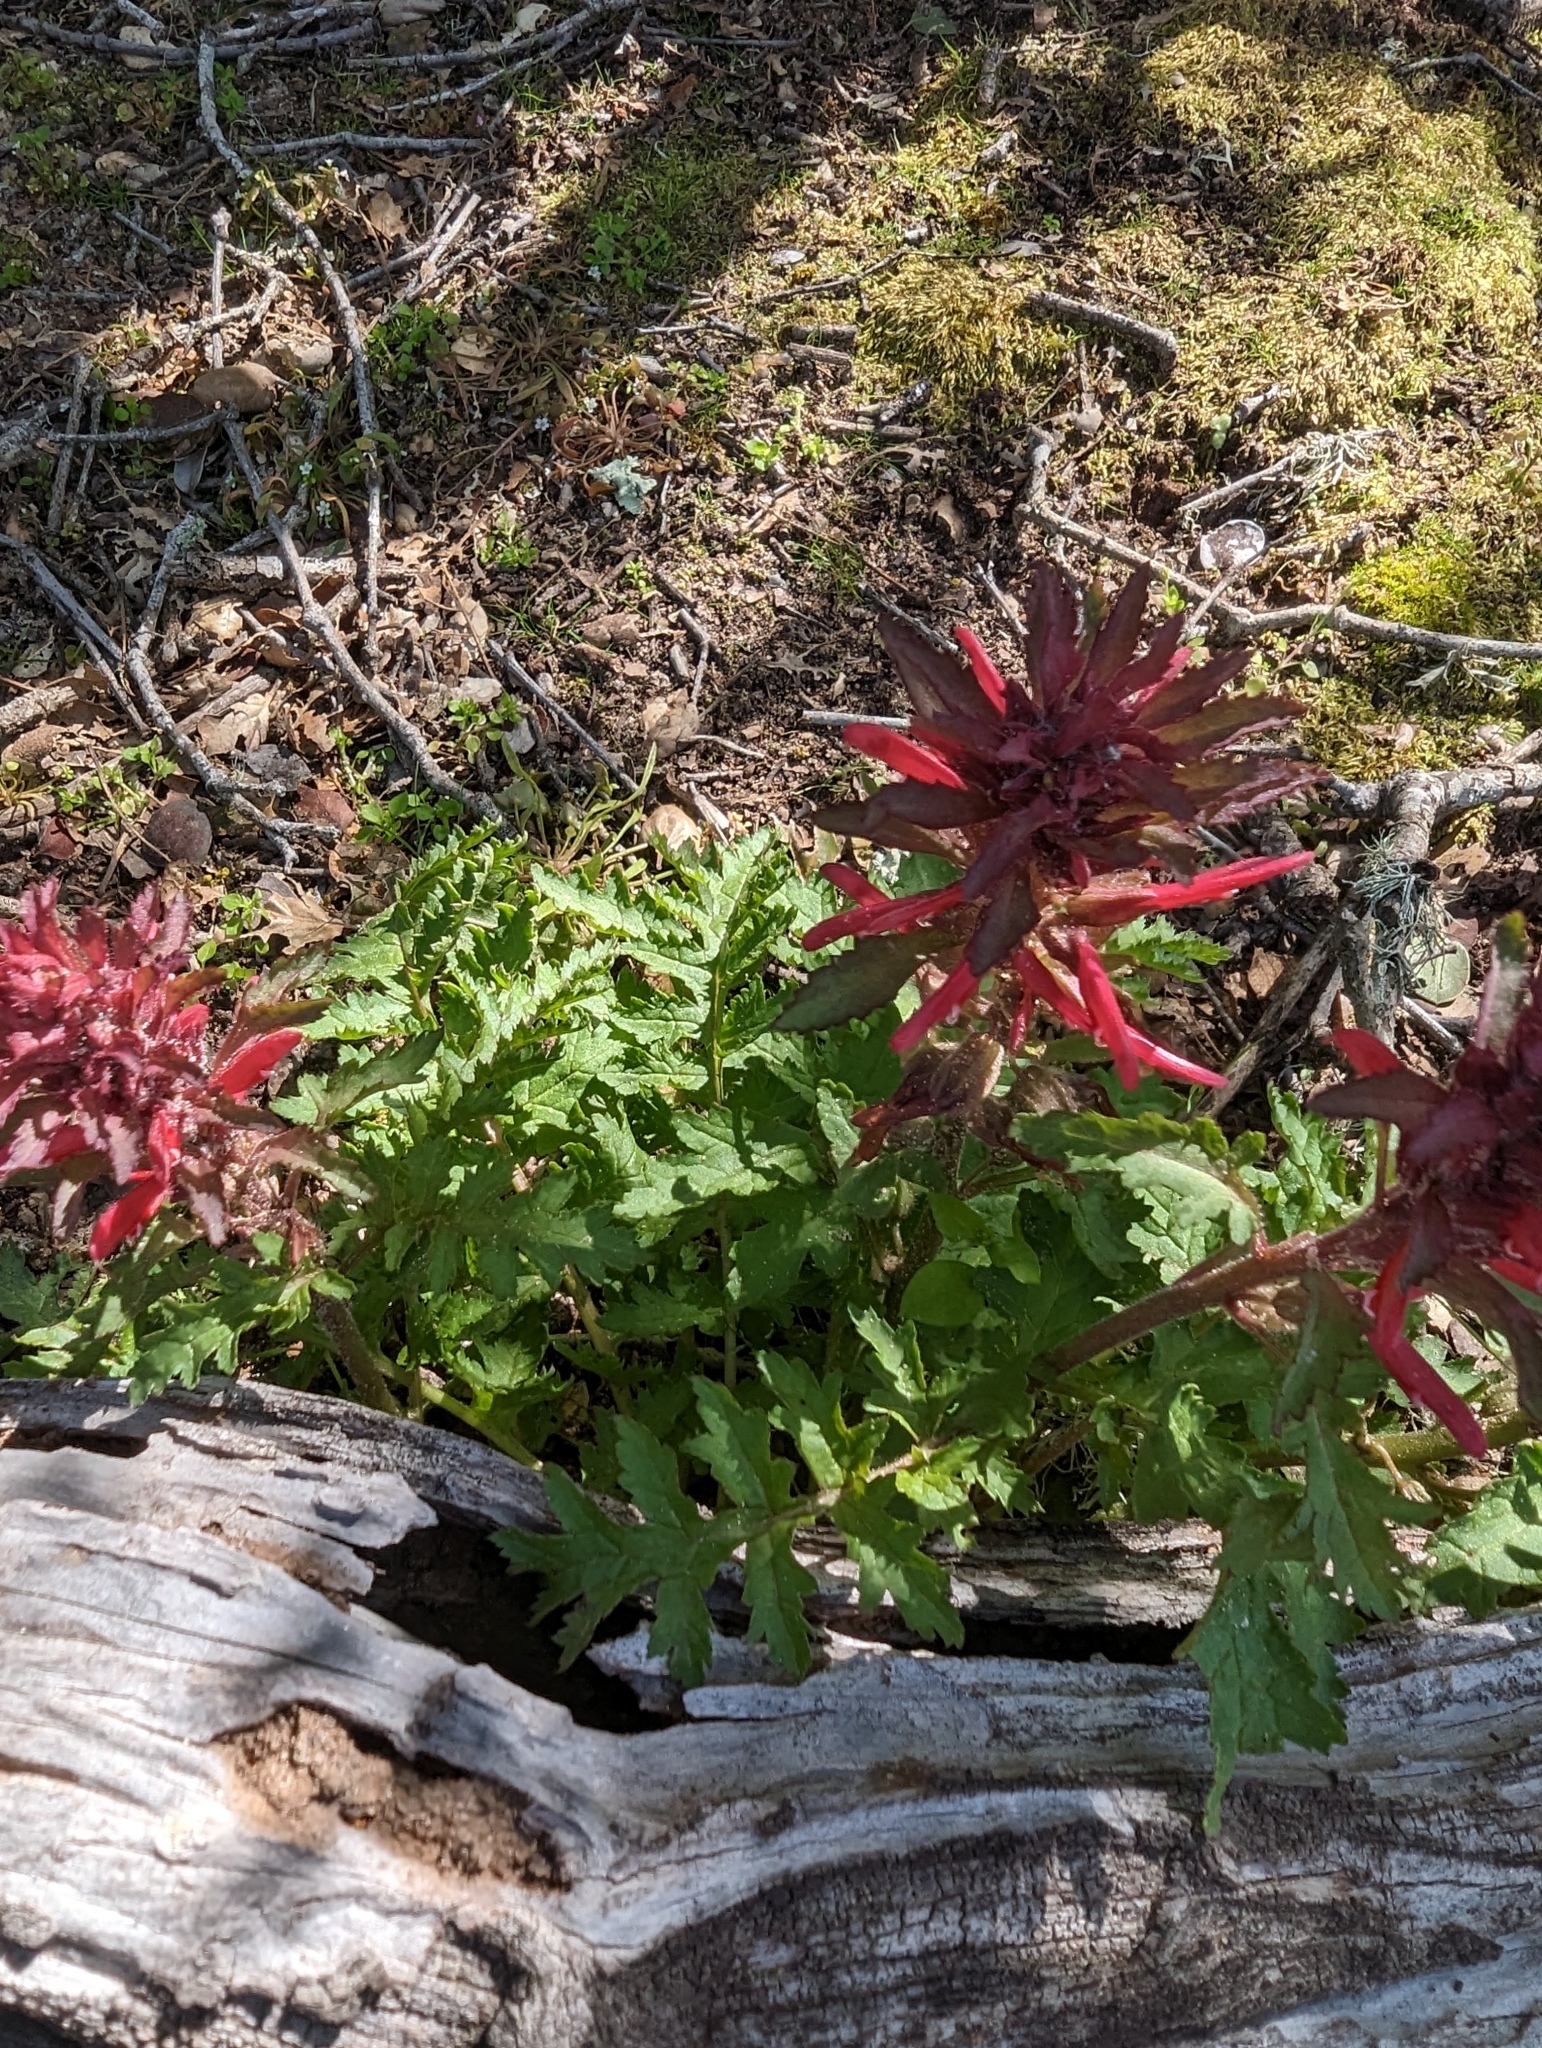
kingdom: Plantae
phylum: Tracheophyta
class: Magnoliopsida
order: Lamiales
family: Orobanchaceae
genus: Pedicularis
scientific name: Pedicularis densiflora
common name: Indian warrior
